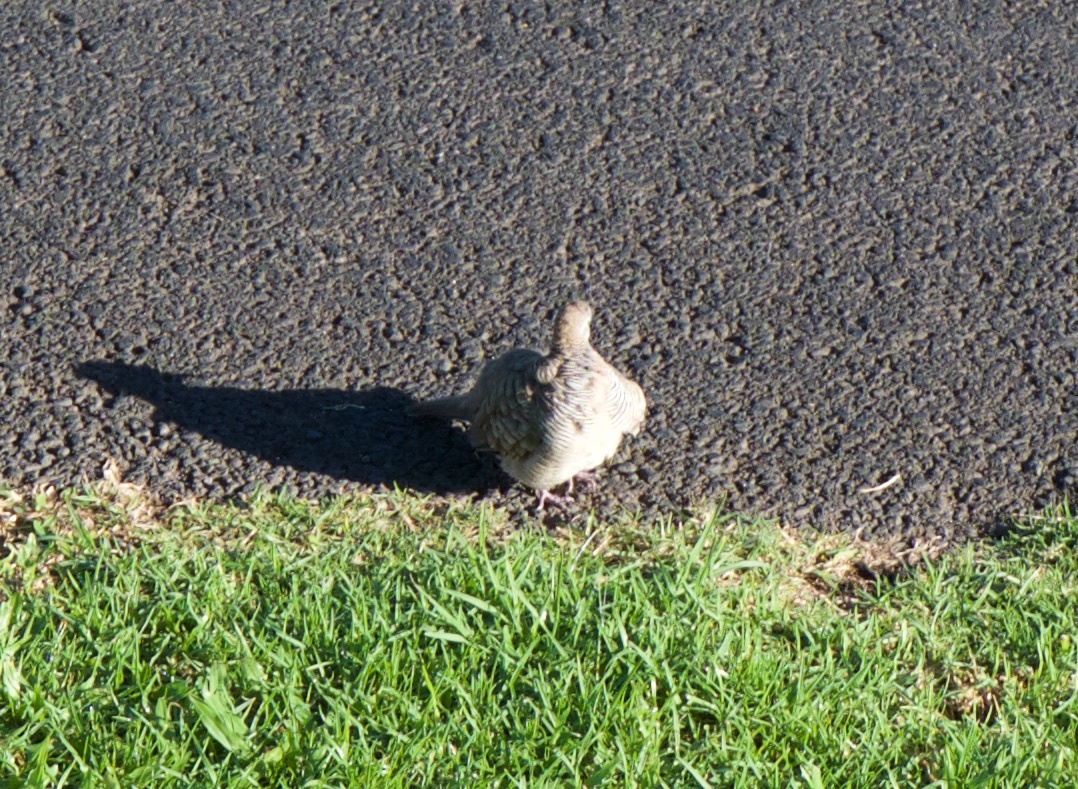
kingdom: Animalia
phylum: Chordata
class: Aves
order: Columbiformes
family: Columbidae
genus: Geopelia
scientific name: Geopelia striata
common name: Zebra dove
